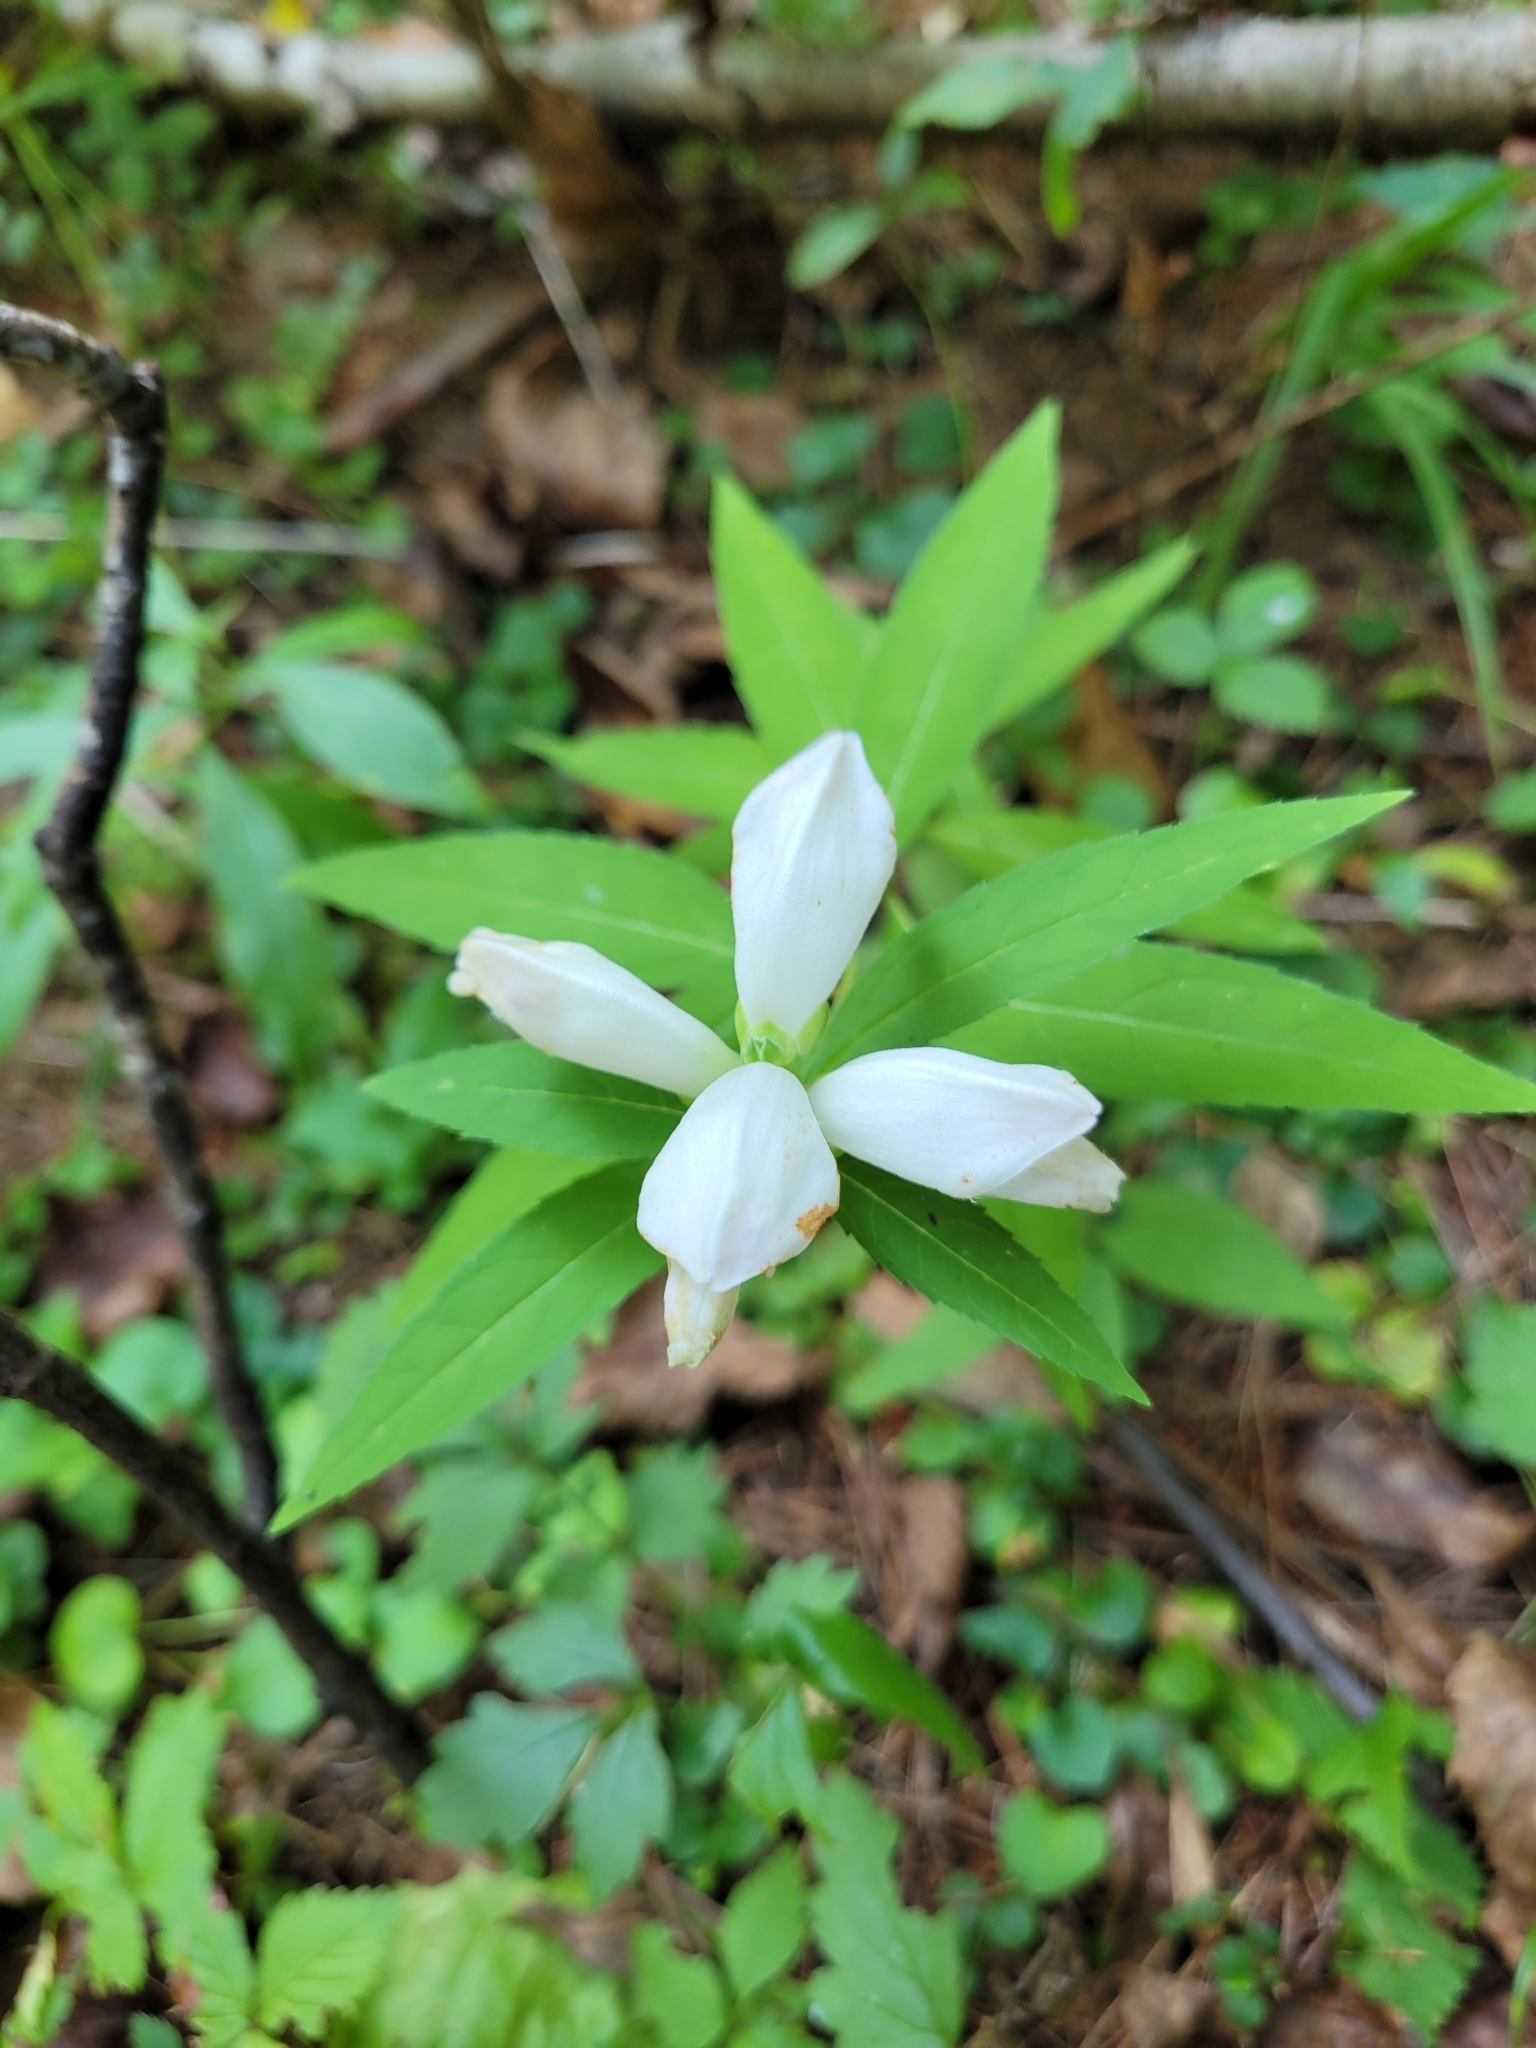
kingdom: Plantae
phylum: Tracheophyta
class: Magnoliopsida
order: Lamiales
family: Plantaginaceae
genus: Chelone
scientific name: Chelone glabra
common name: Snakehead
